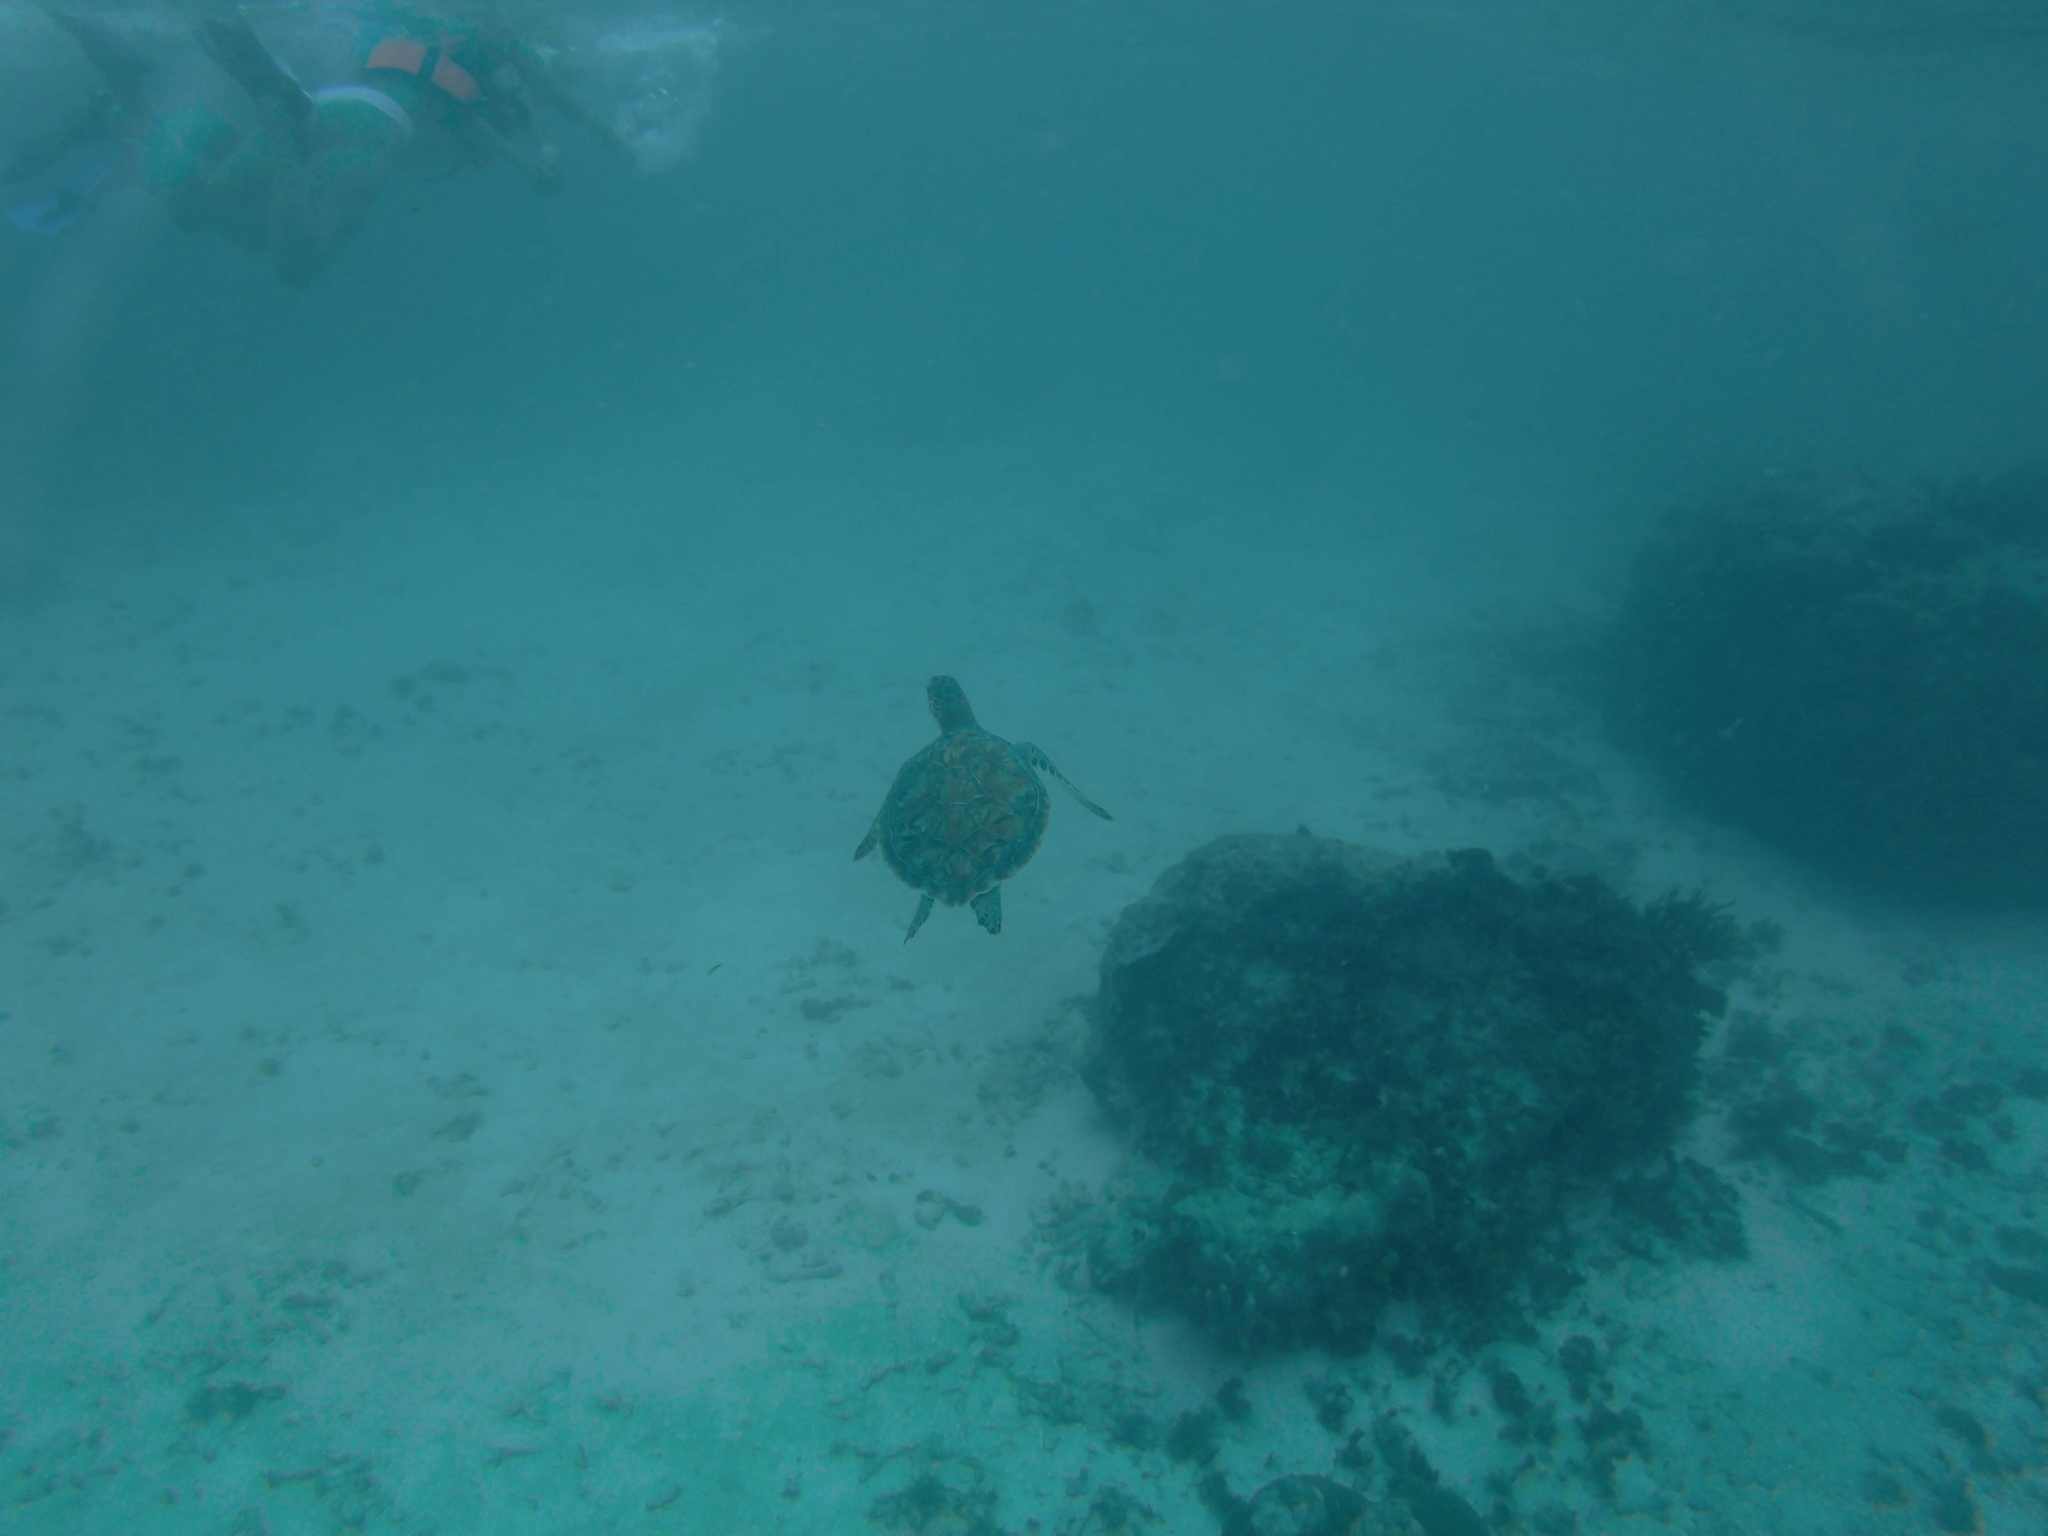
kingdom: Animalia
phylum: Chordata
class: Testudines
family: Cheloniidae
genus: Chelonia
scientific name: Chelonia mydas
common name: Green turtle
